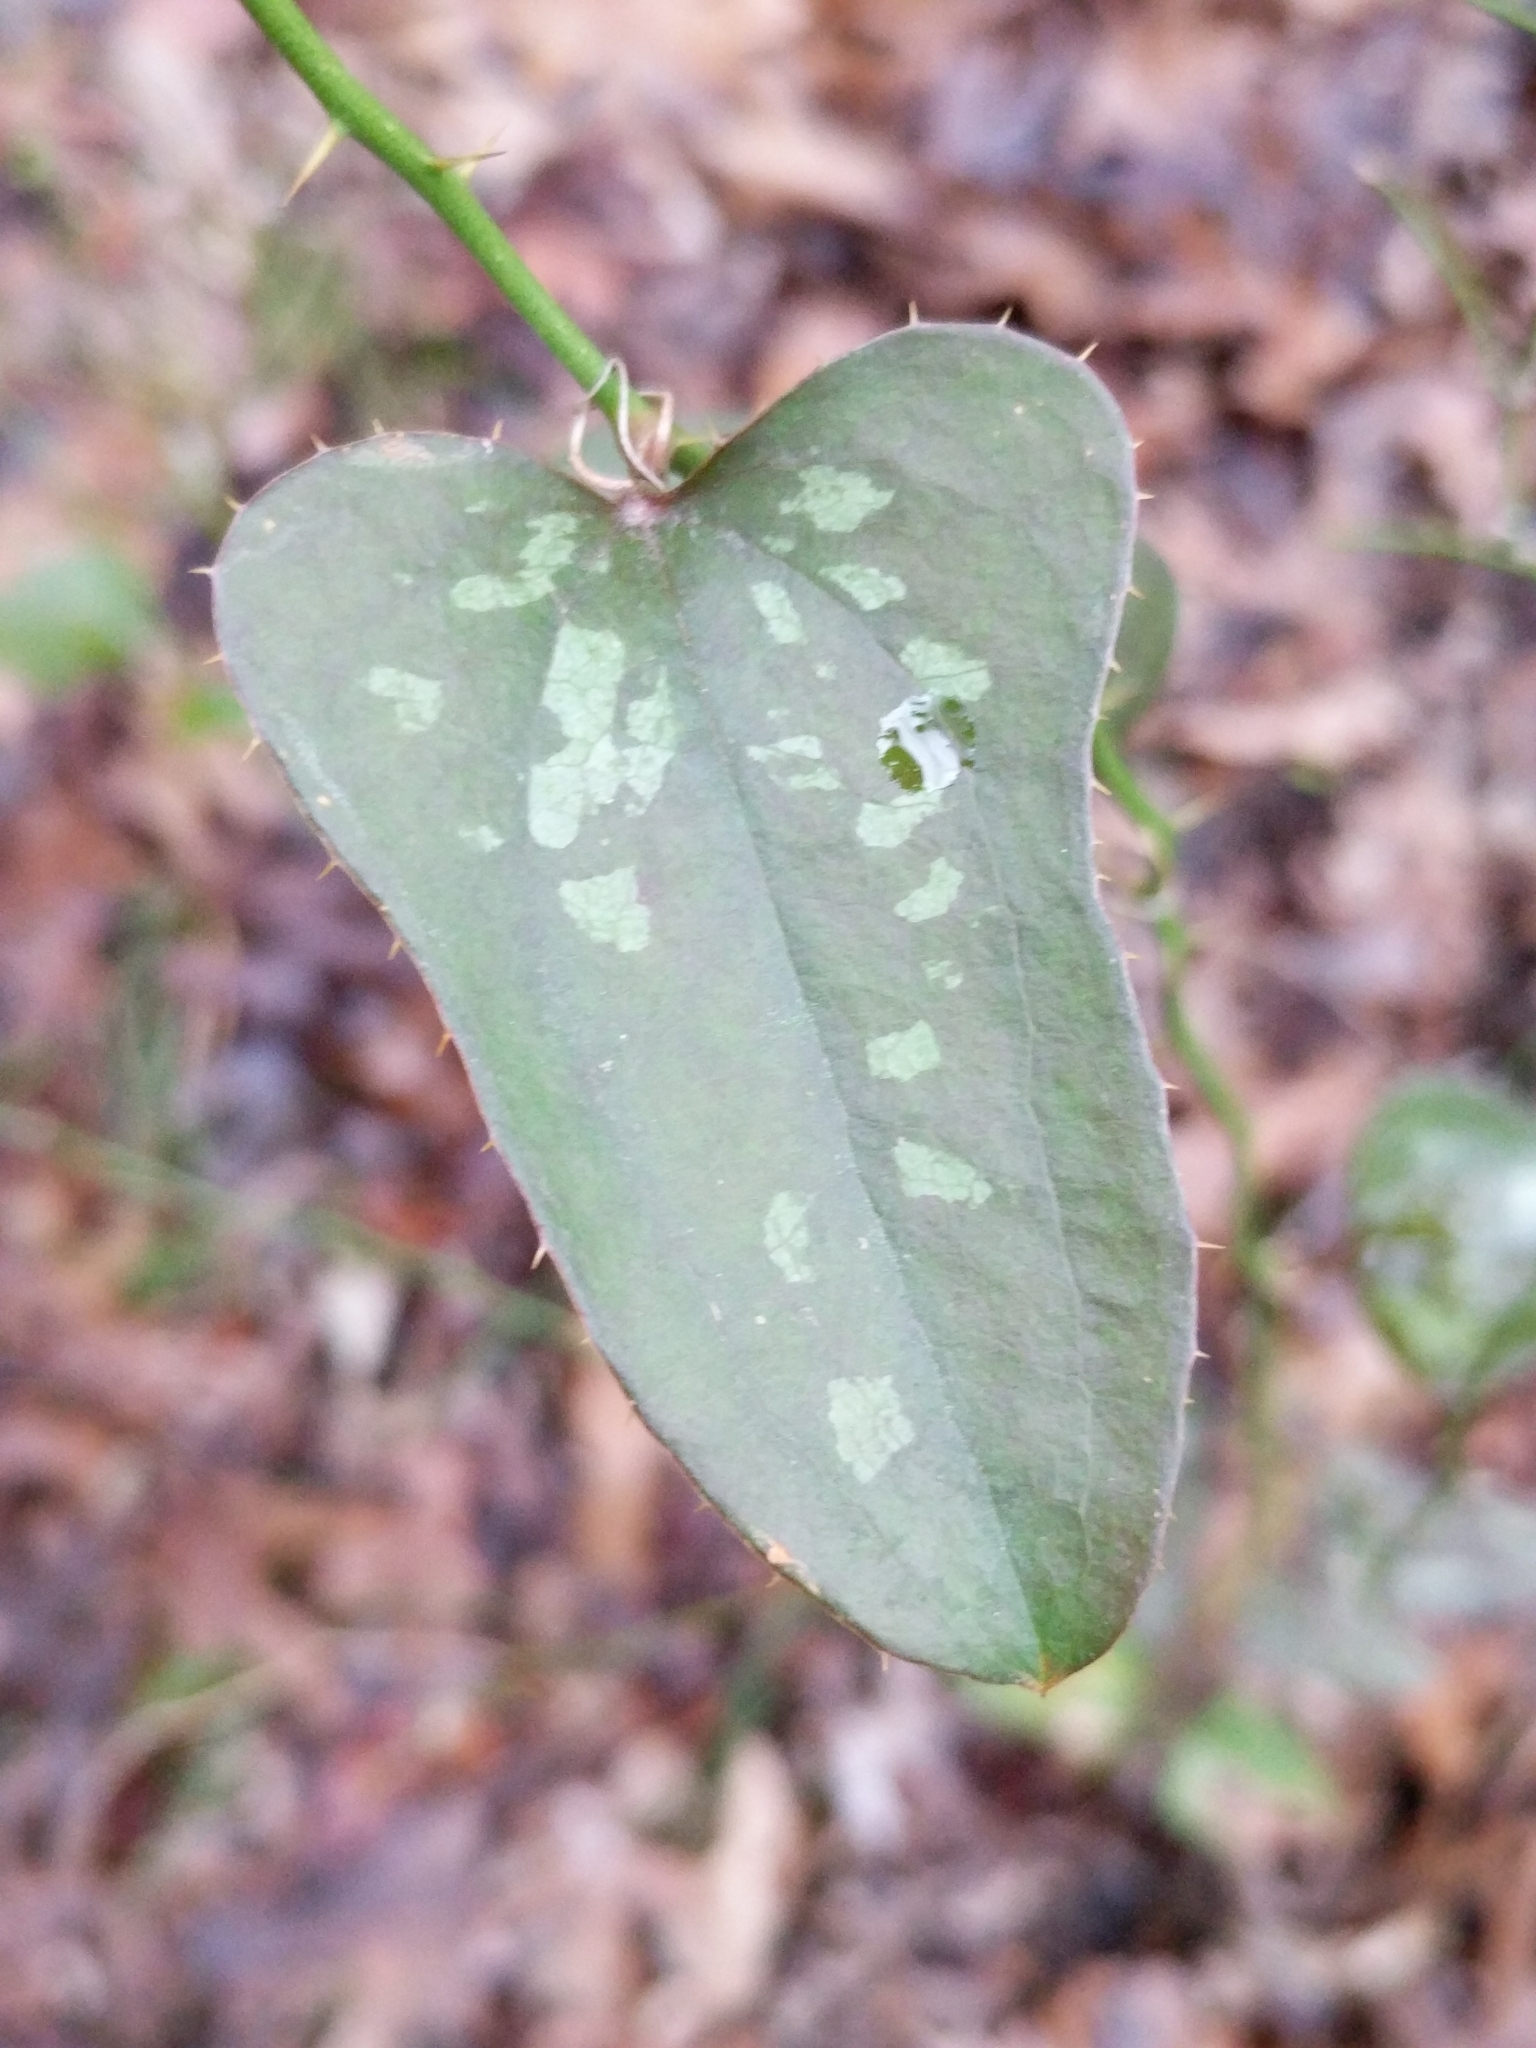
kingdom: Plantae
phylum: Tracheophyta
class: Liliopsida
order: Liliales
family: Smilacaceae
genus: Smilax
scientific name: Smilax bona-nox
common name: Catbrier
